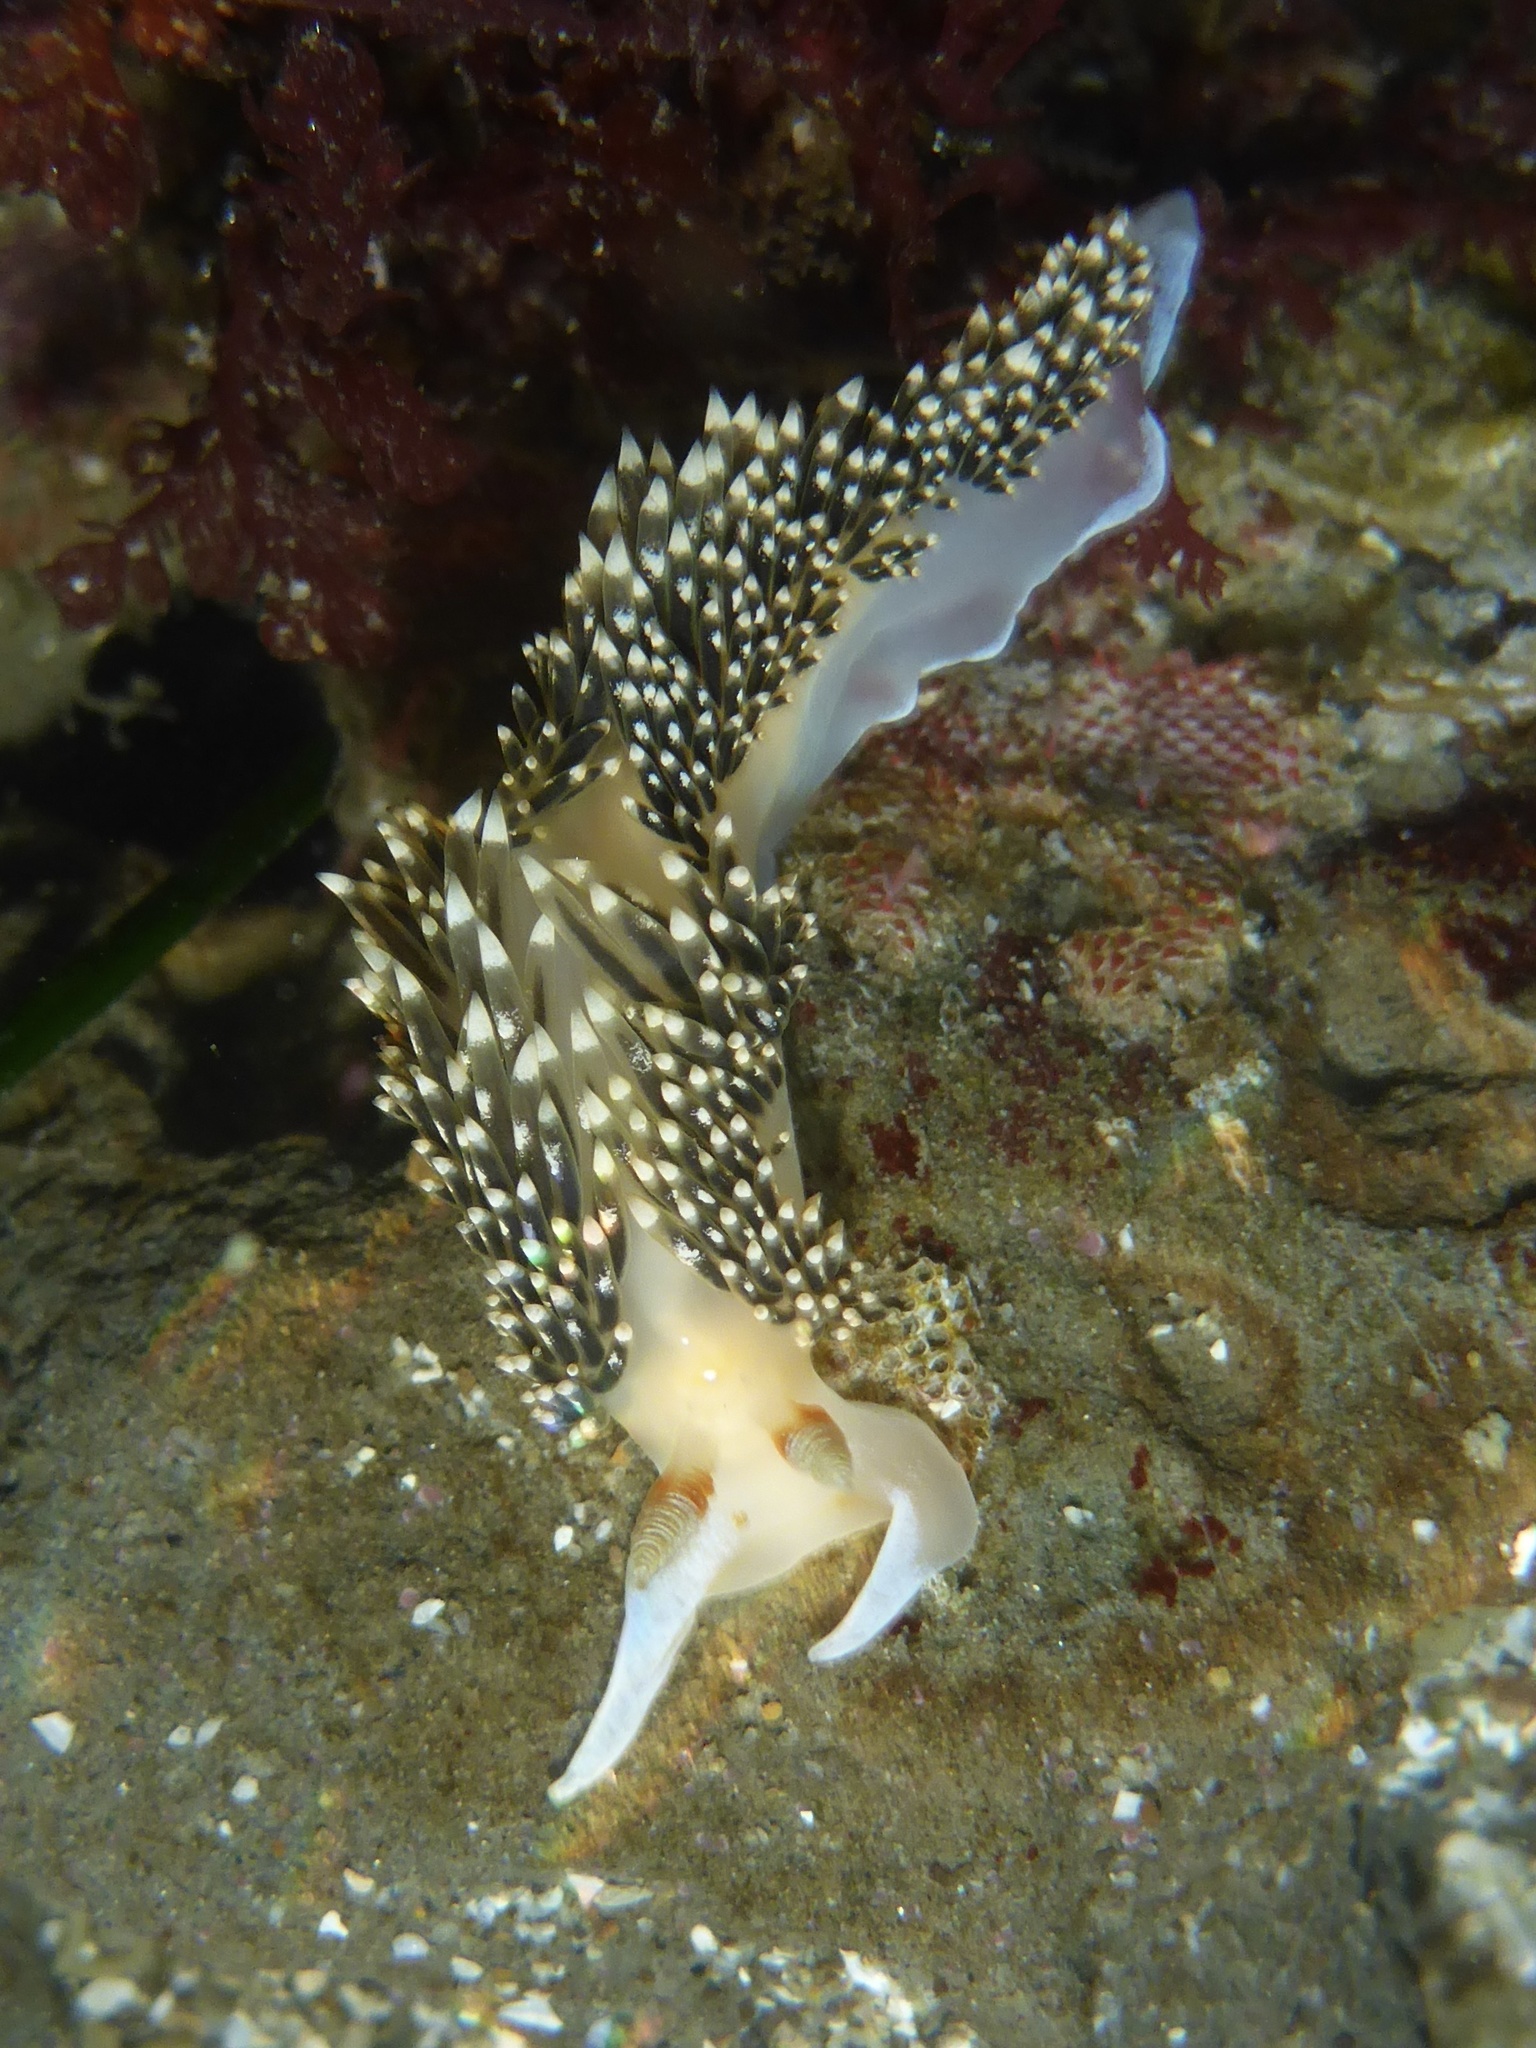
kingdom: Animalia
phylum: Mollusca
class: Gastropoda
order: Nudibranchia
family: Facelinidae
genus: Phidiana
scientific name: Phidiana hiltoni
